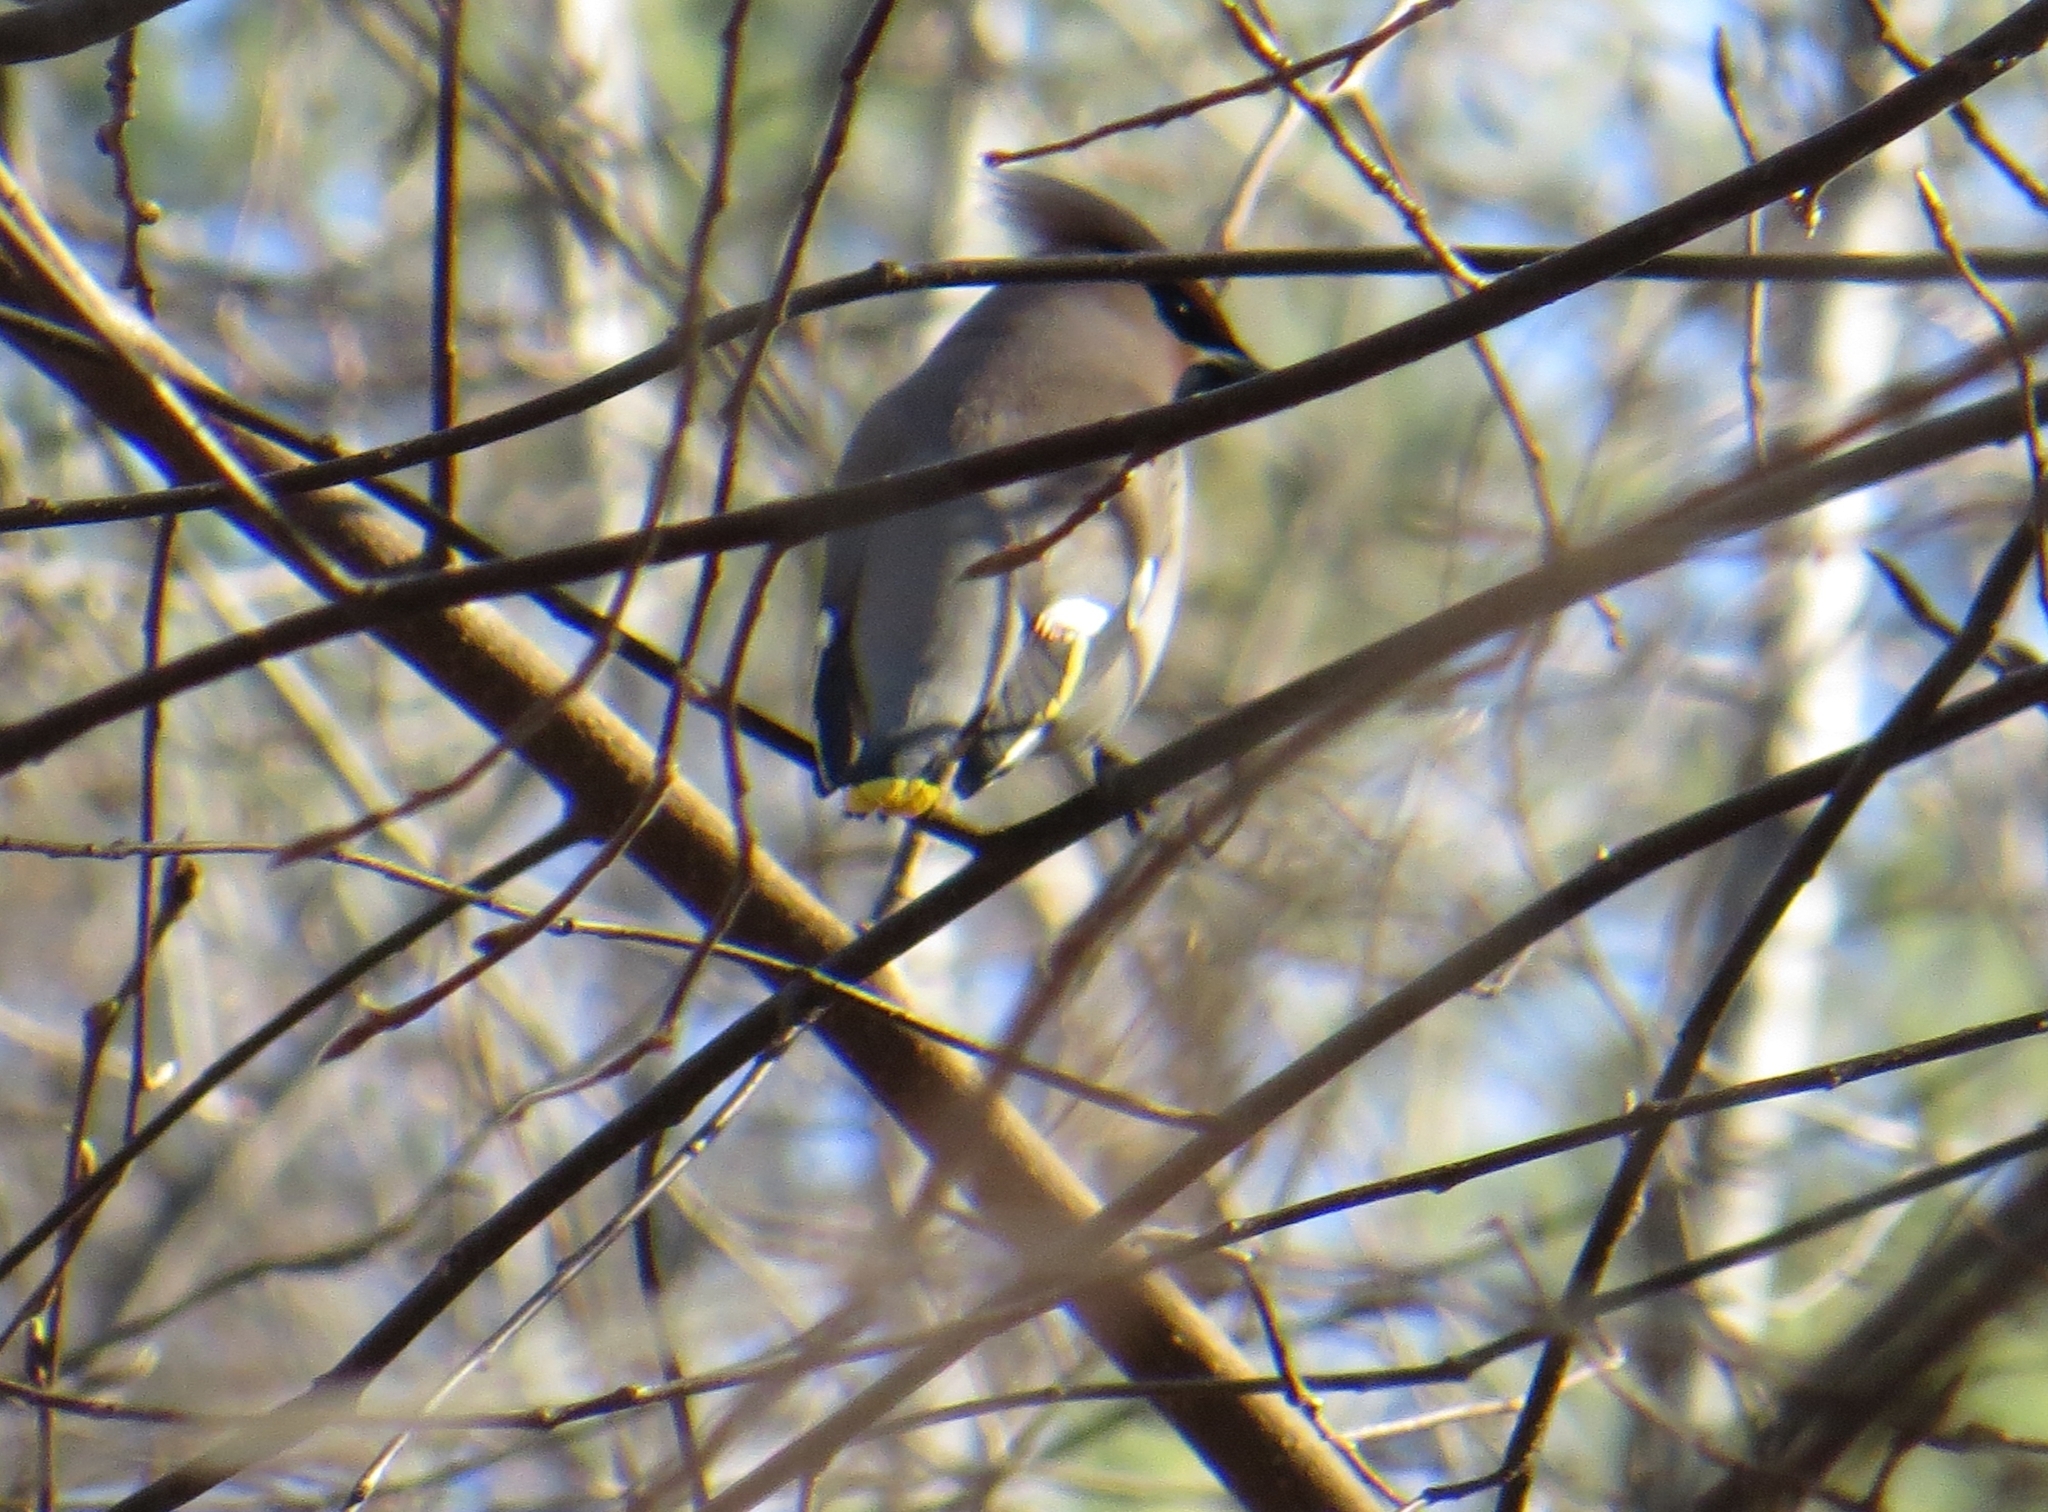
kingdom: Animalia
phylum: Chordata
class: Aves
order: Passeriformes
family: Bombycillidae
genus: Bombycilla
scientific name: Bombycilla garrulus
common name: Bohemian waxwing
